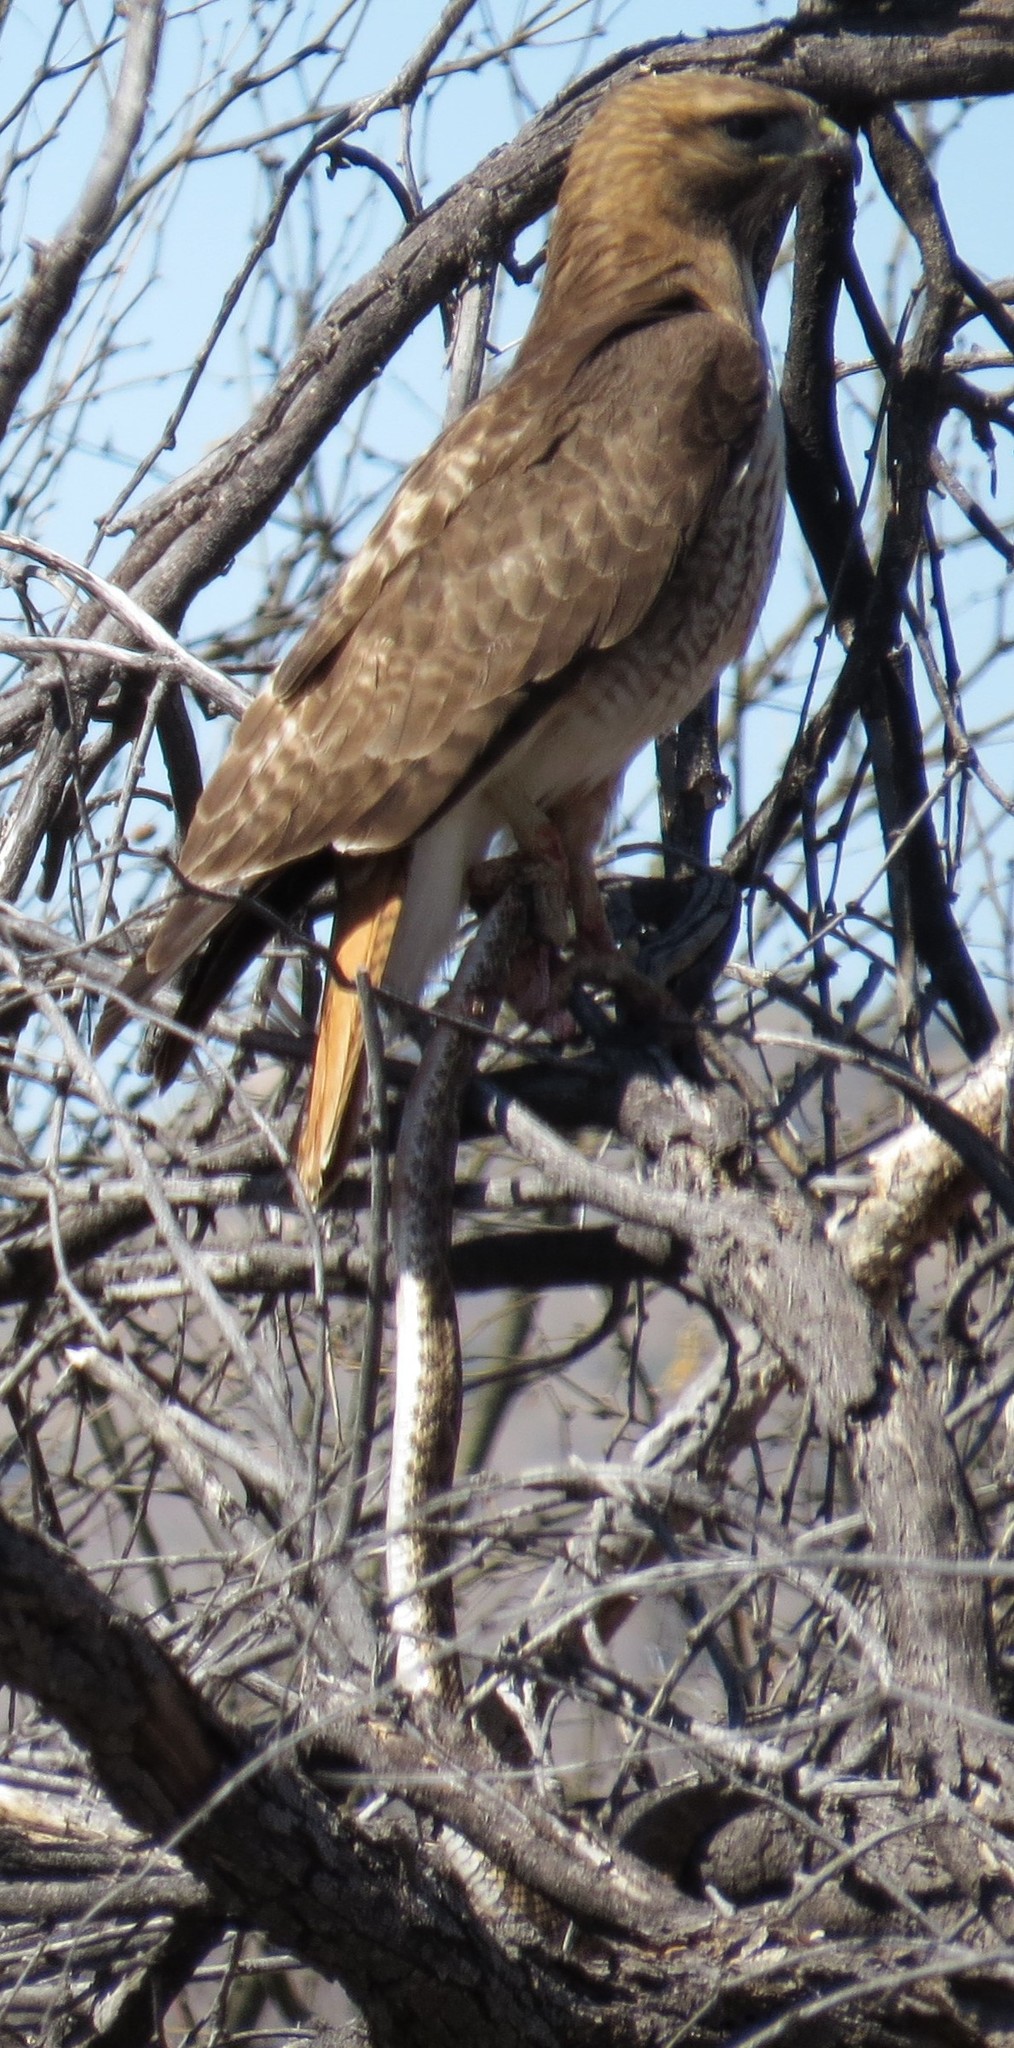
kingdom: Animalia
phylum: Chordata
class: Aves
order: Accipitriformes
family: Accipitridae
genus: Buteo
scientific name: Buteo jamaicensis
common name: Red-tailed hawk
